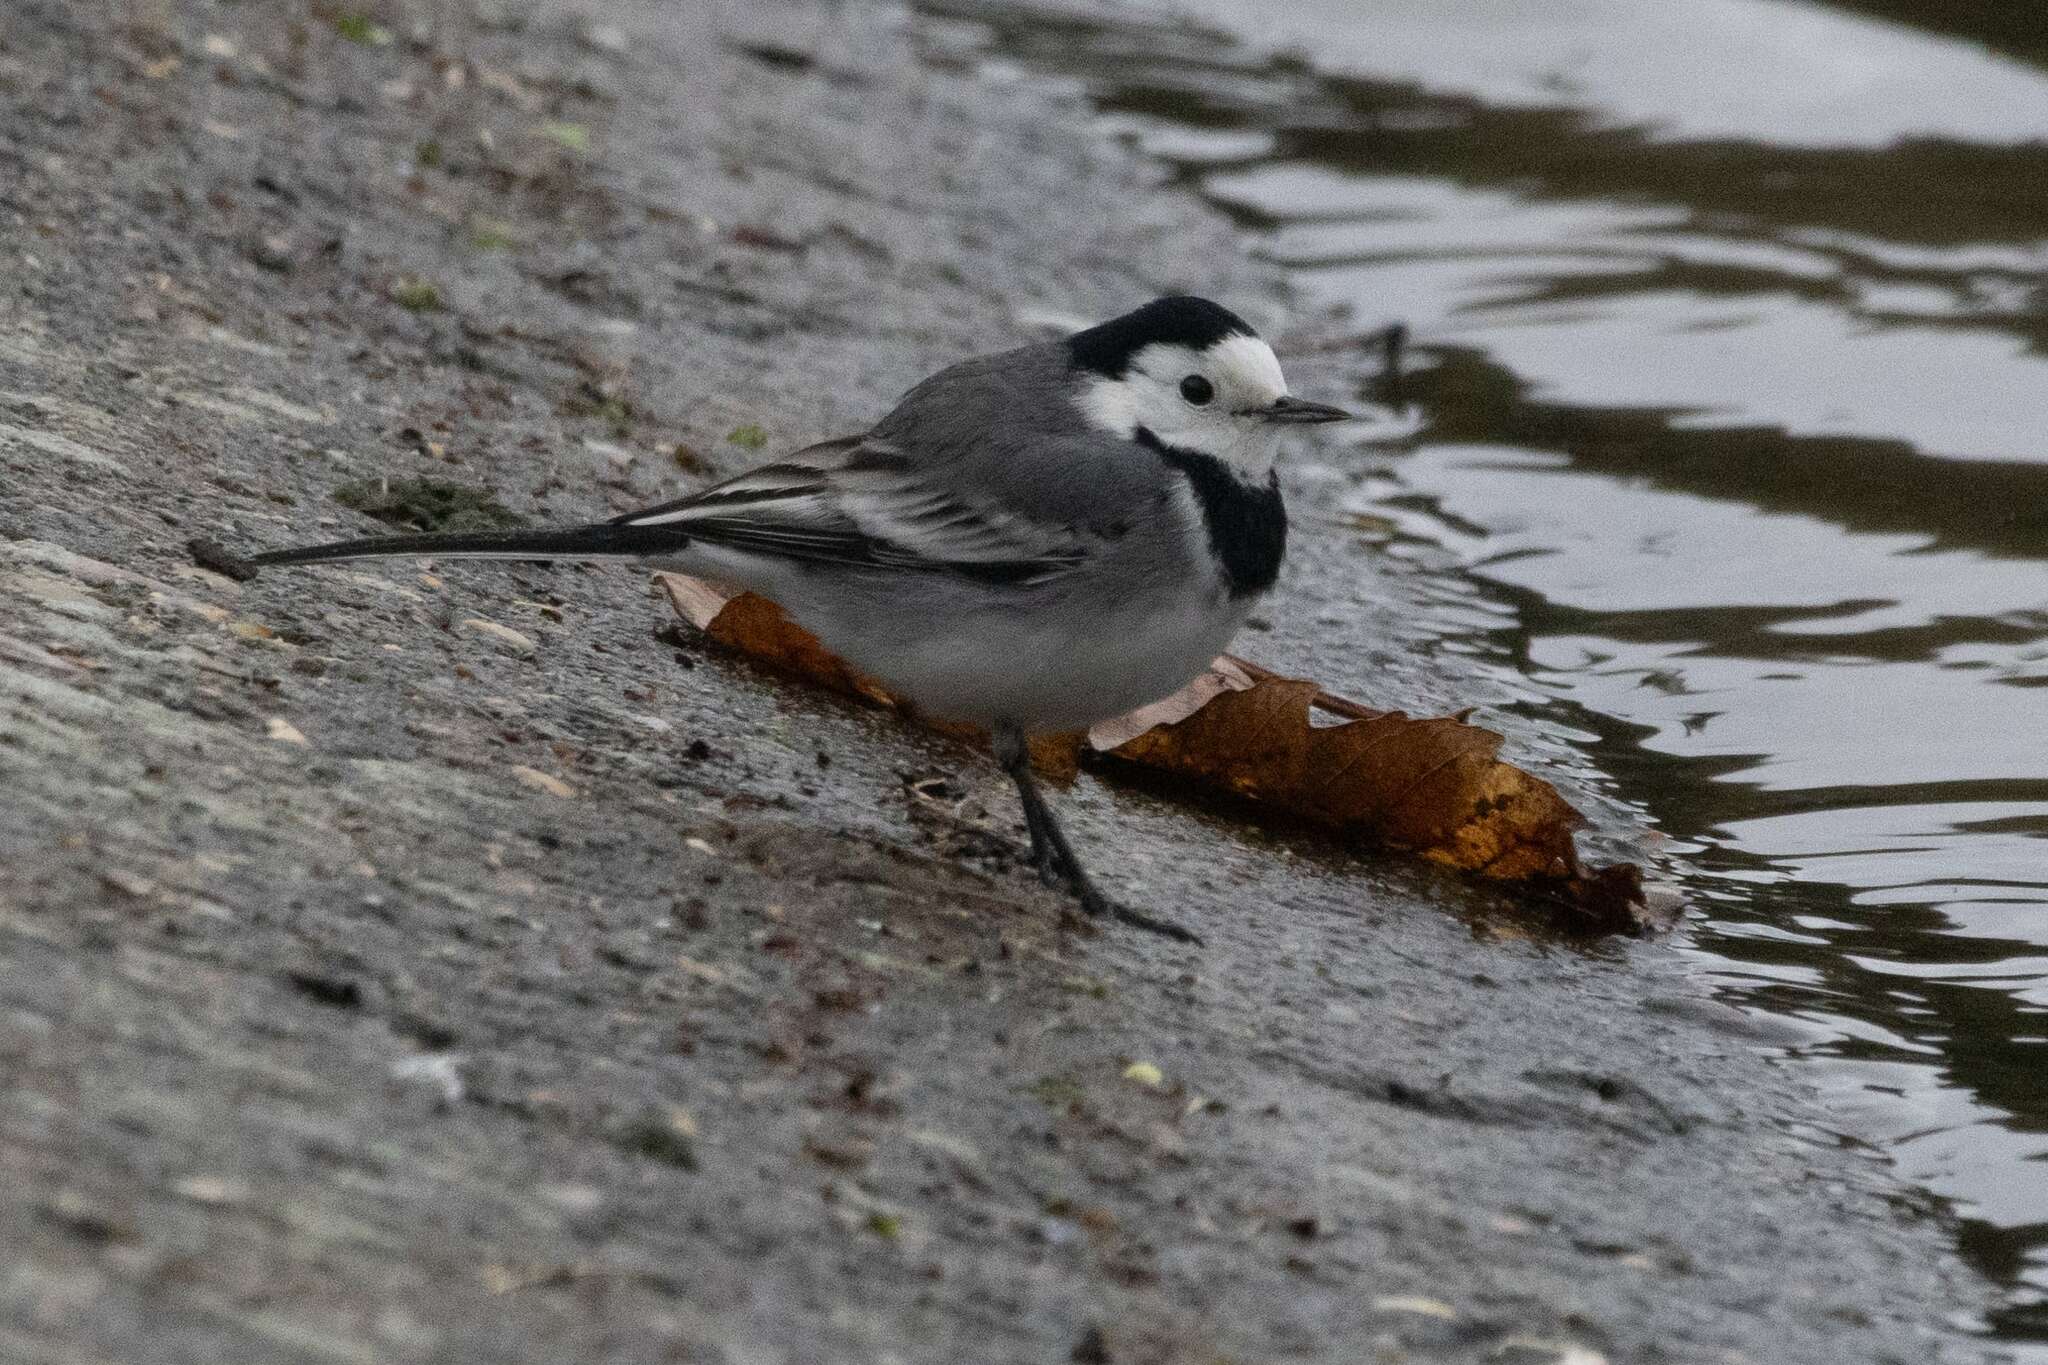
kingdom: Animalia
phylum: Chordata
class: Aves
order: Passeriformes
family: Motacillidae
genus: Motacilla
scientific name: Motacilla alba
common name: White wagtail
